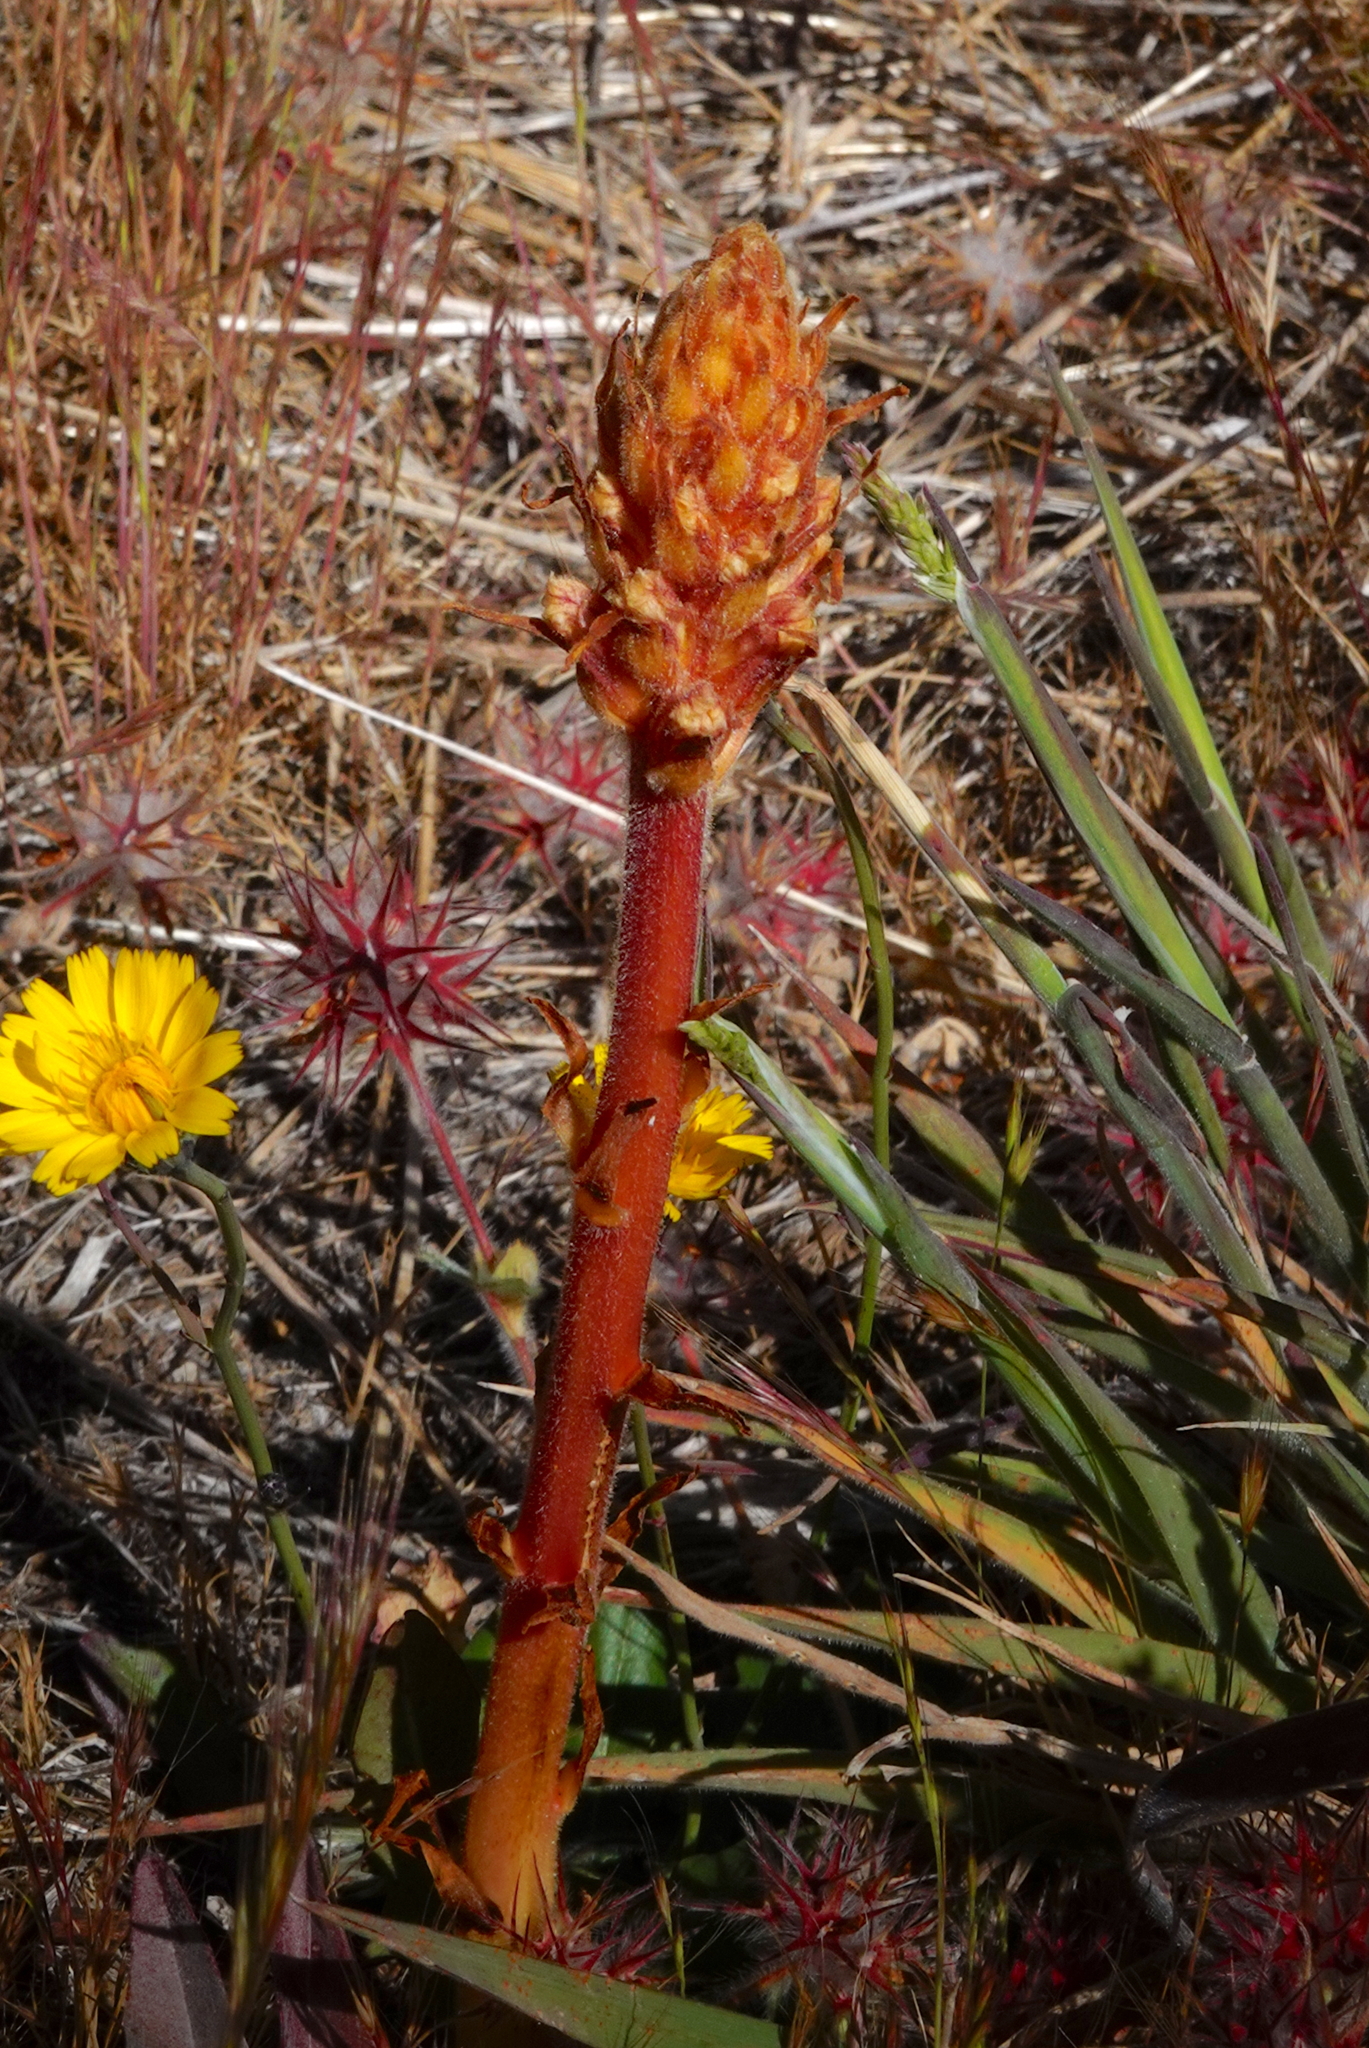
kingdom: Plantae
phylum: Tracheophyta
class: Magnoliopsida
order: Lamiales
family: Orobanchaceae
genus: Orobanche
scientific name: Orobanche minor
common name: Common broomrape
